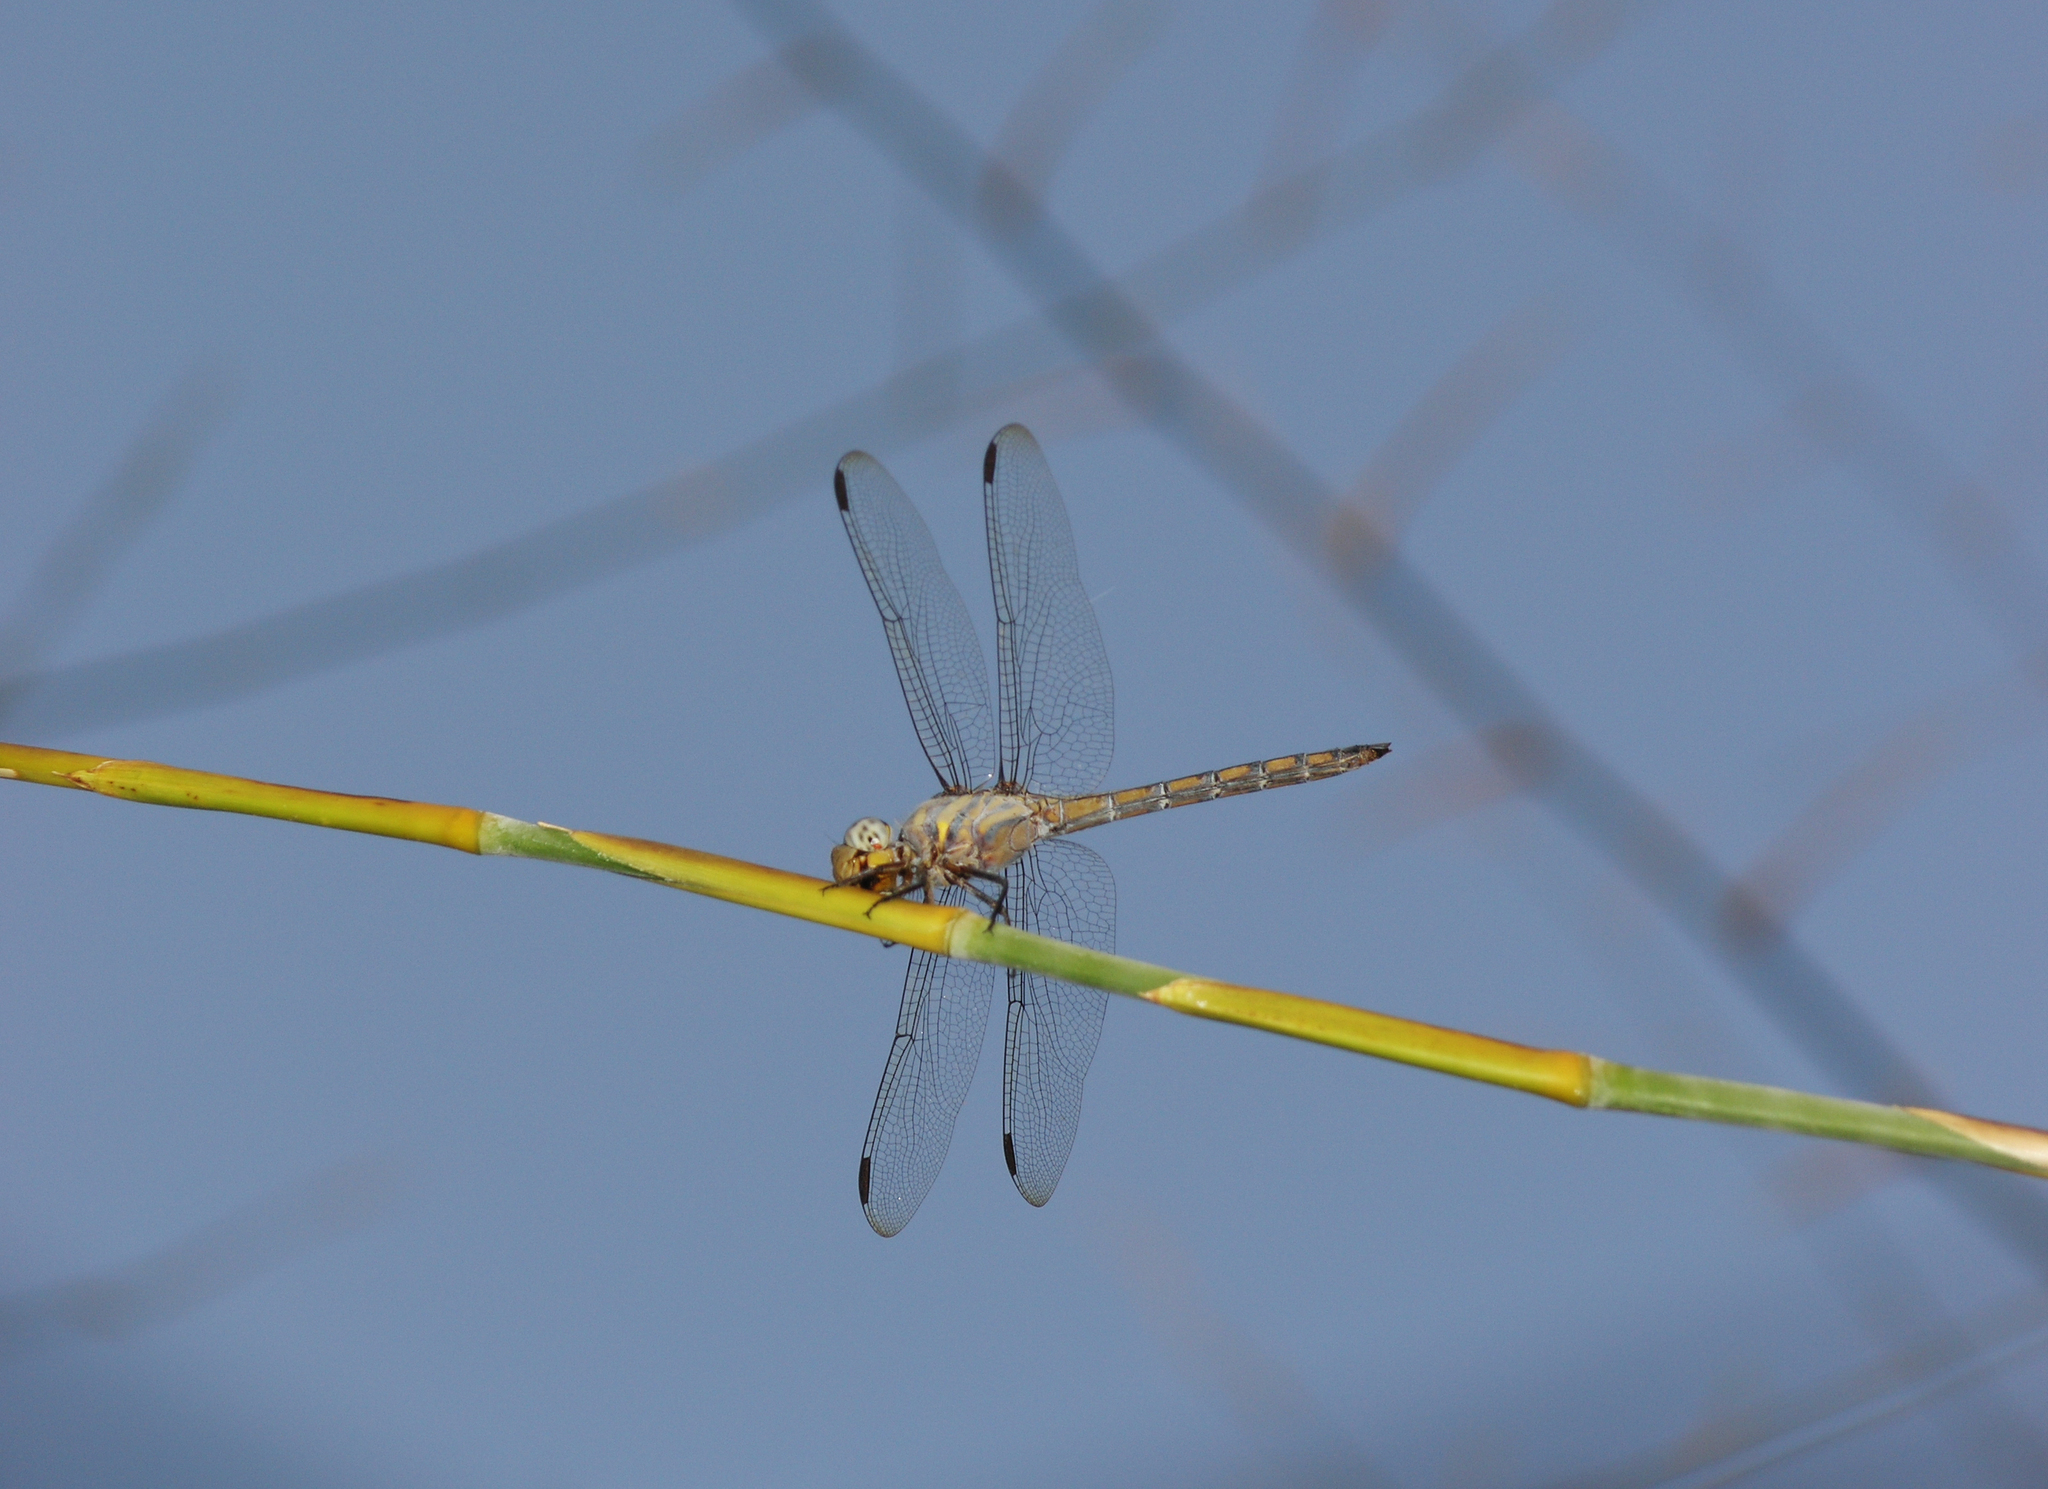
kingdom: Animalia
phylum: Arthropoda
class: Insecta
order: Odonata
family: Libellulidae
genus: Potamarcha
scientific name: Potamarcha congener
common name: Blue chaser
